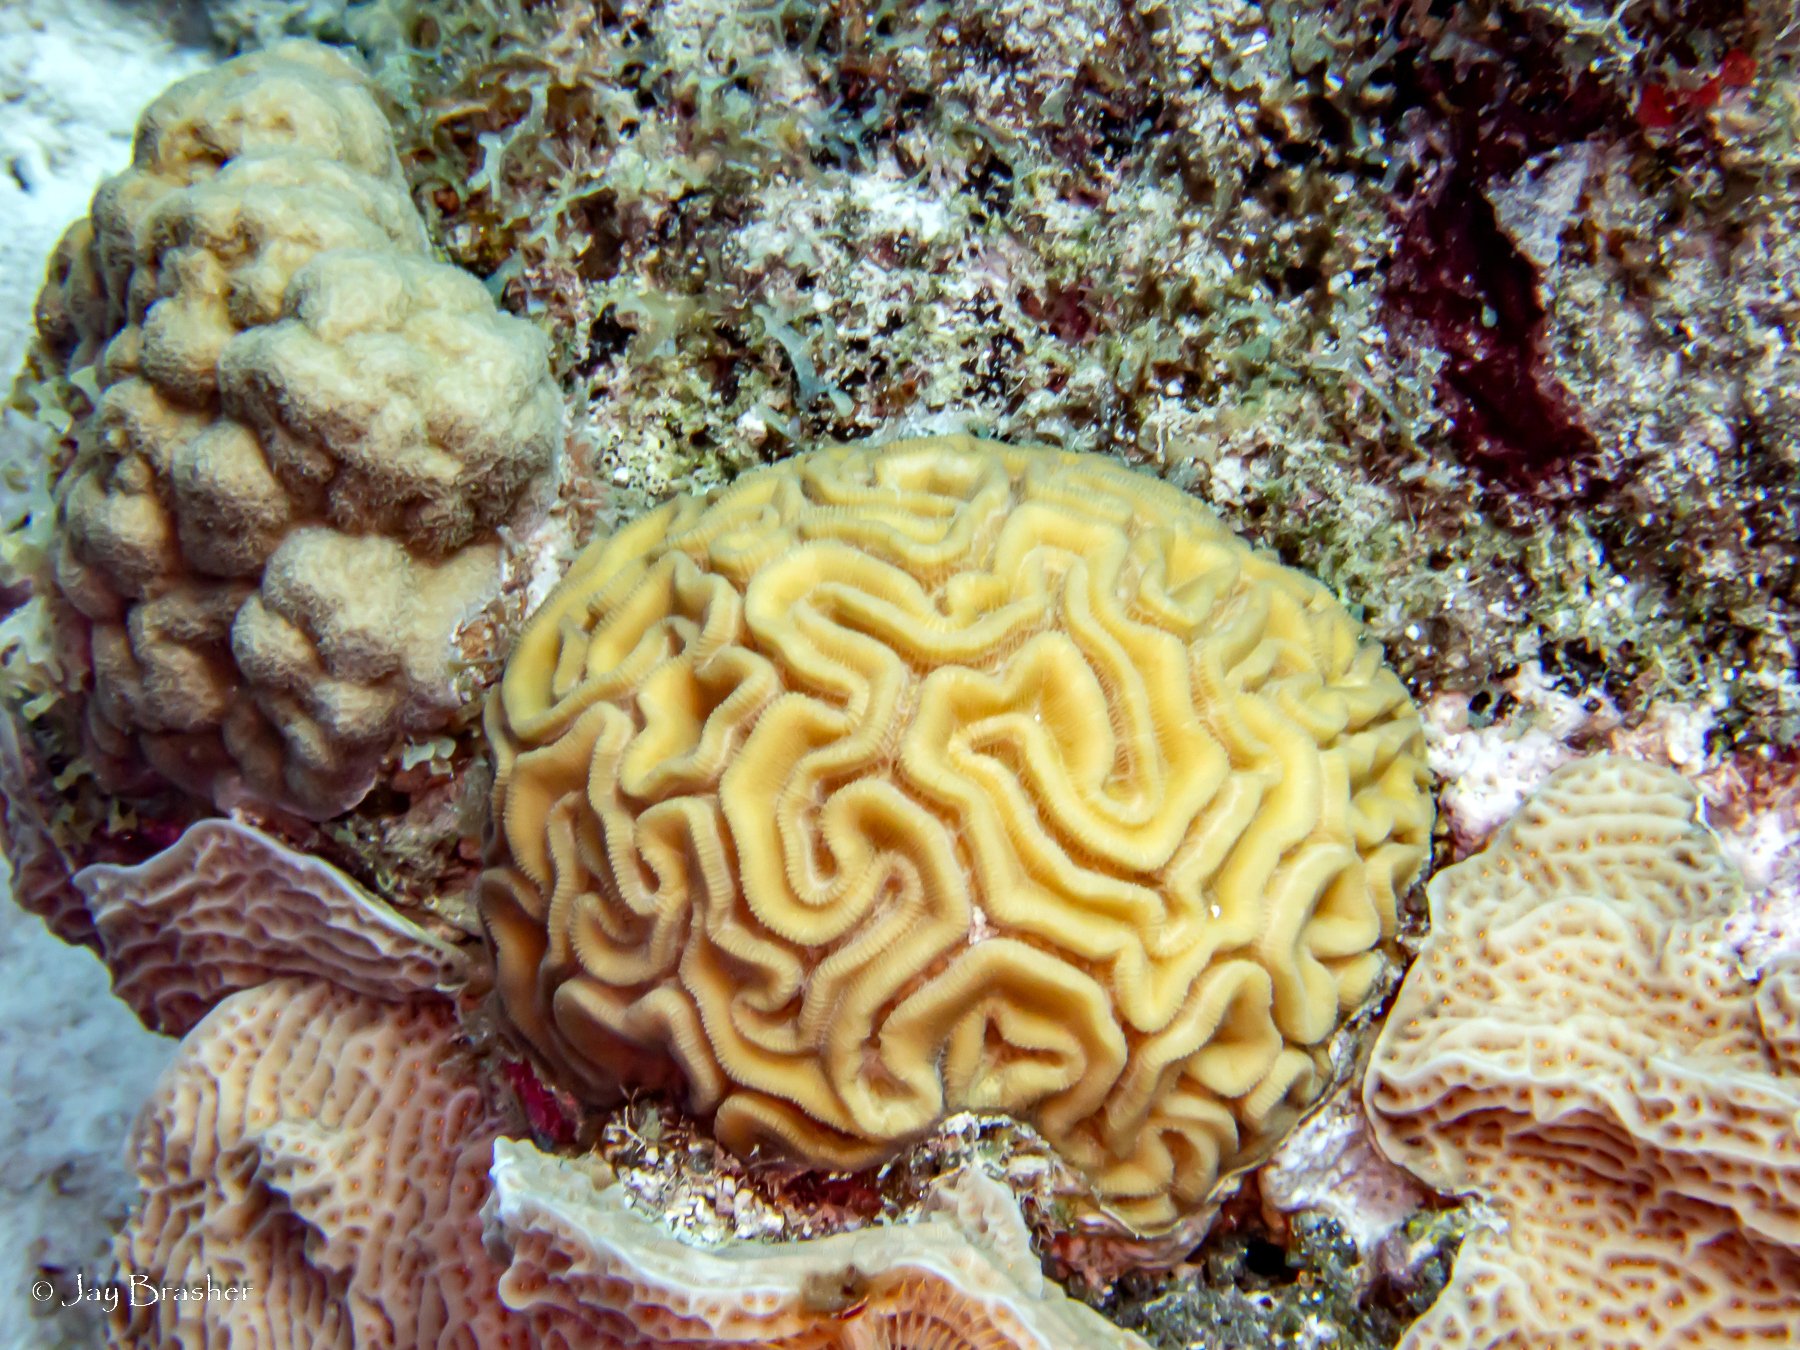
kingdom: Animalia
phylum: Cnidaria
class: Anthozoa
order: Scleractinia
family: Poritidae
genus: Porites
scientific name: Porites astreoides
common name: Mustard hill coral
